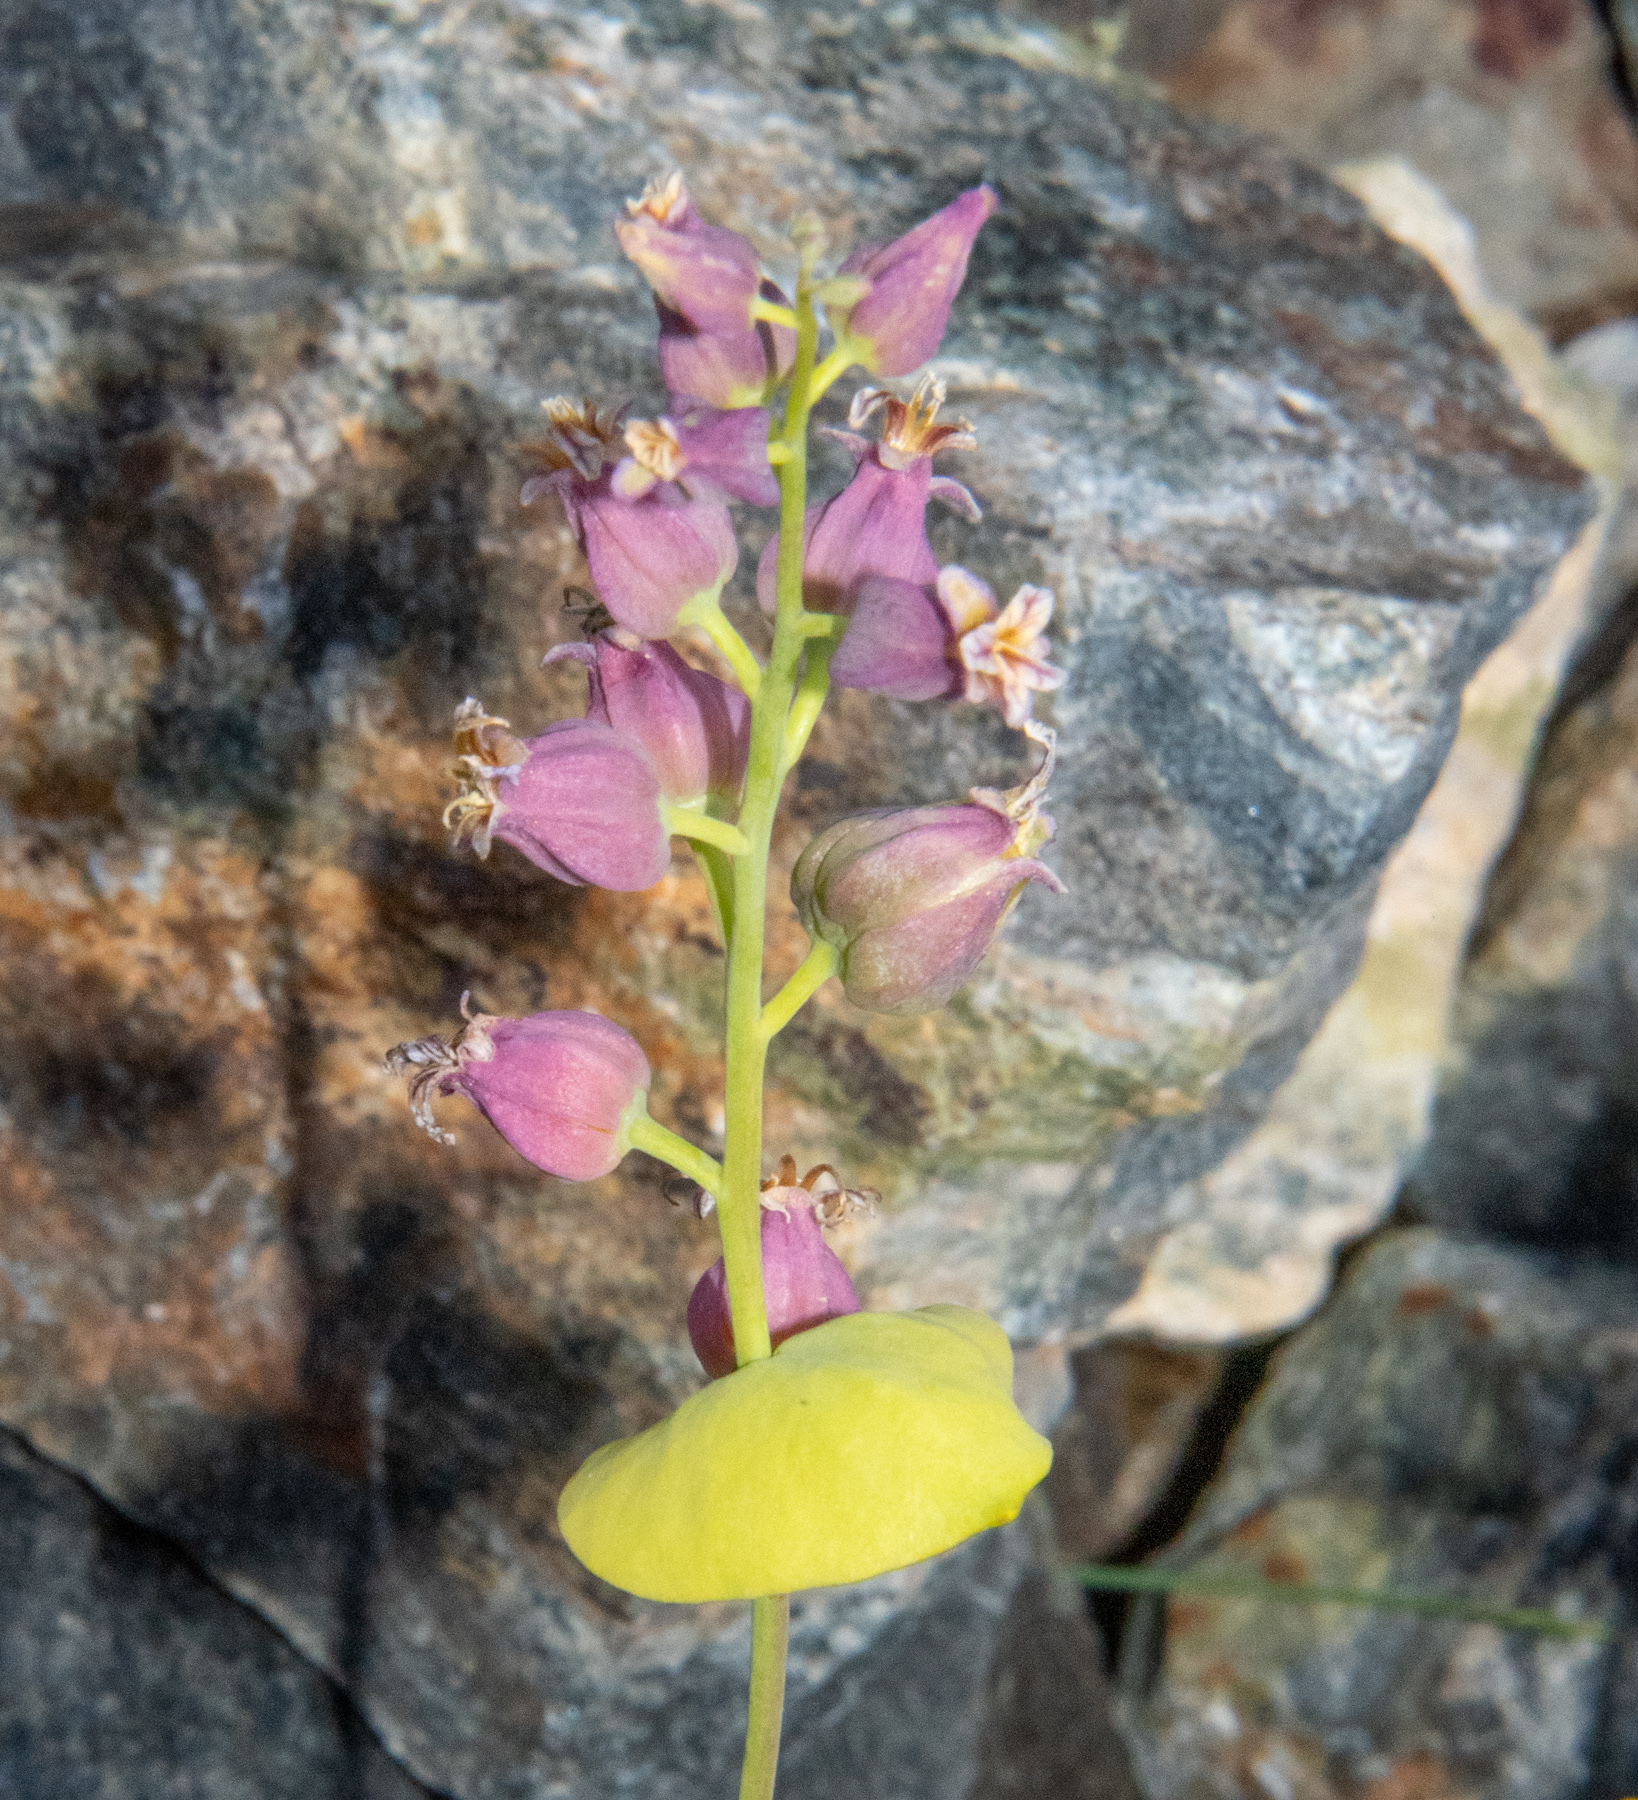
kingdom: Plantae
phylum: Tracheophyta
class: Magnoliopsida
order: Brassicales
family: Brassicaceae
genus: Streptanthus
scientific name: Streptanthus tortuosus
